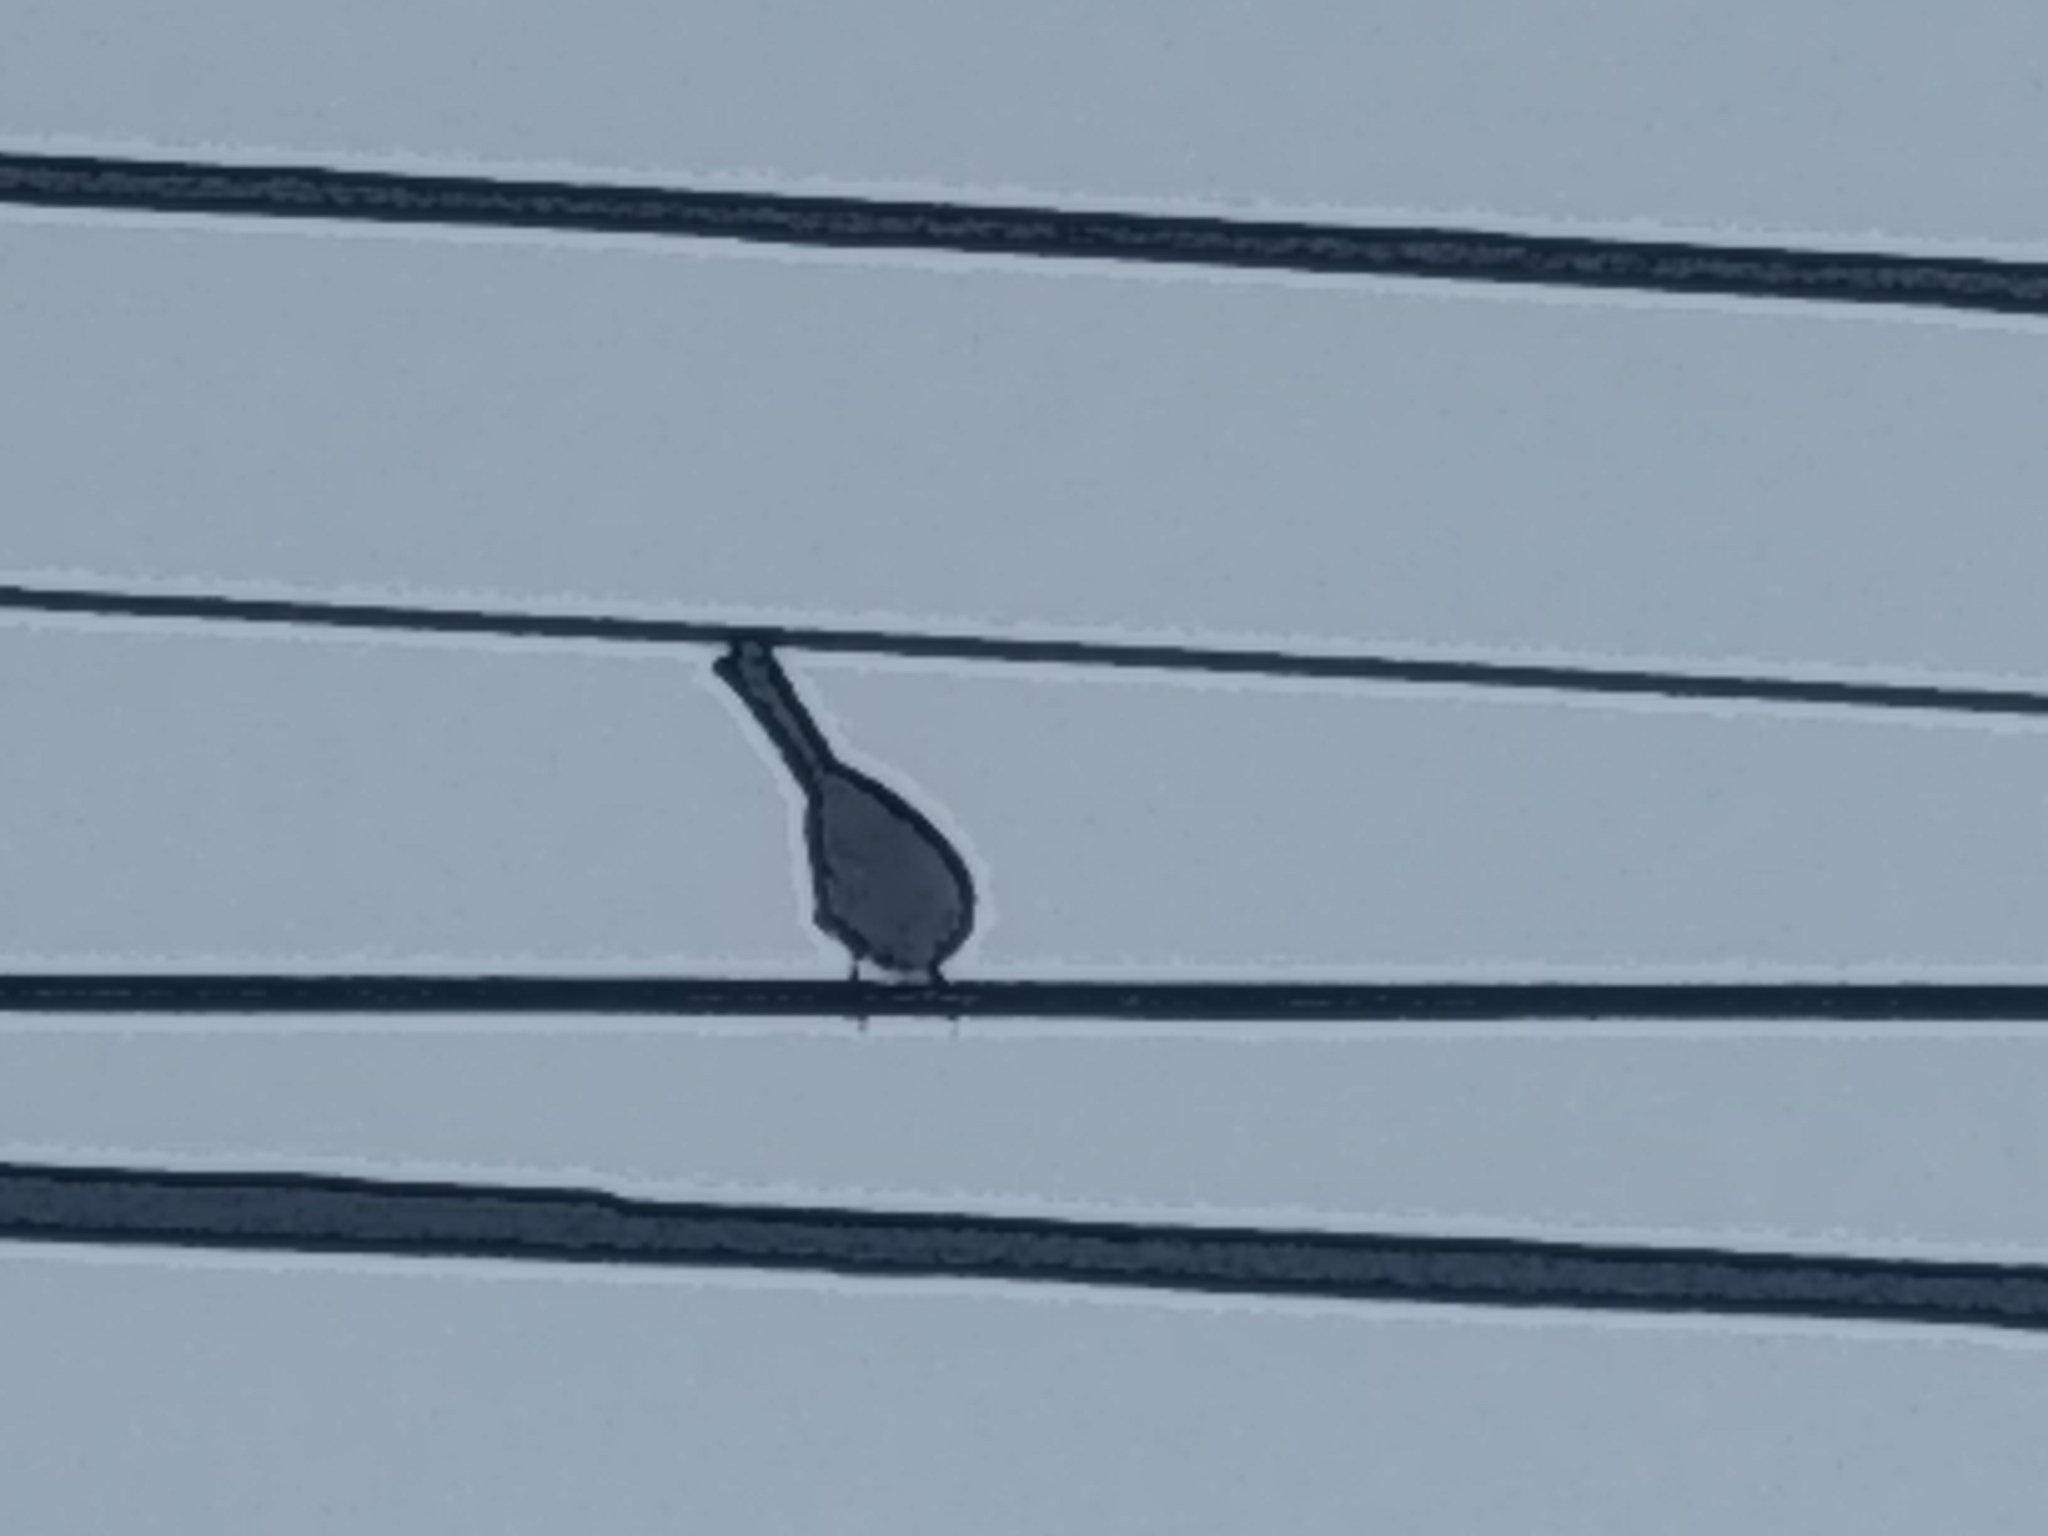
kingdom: Animalia
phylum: Chordata
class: Aves
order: Passeriformes
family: Mimidae
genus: Mimus
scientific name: Mimus polyglottos
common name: Northern mockingbird
